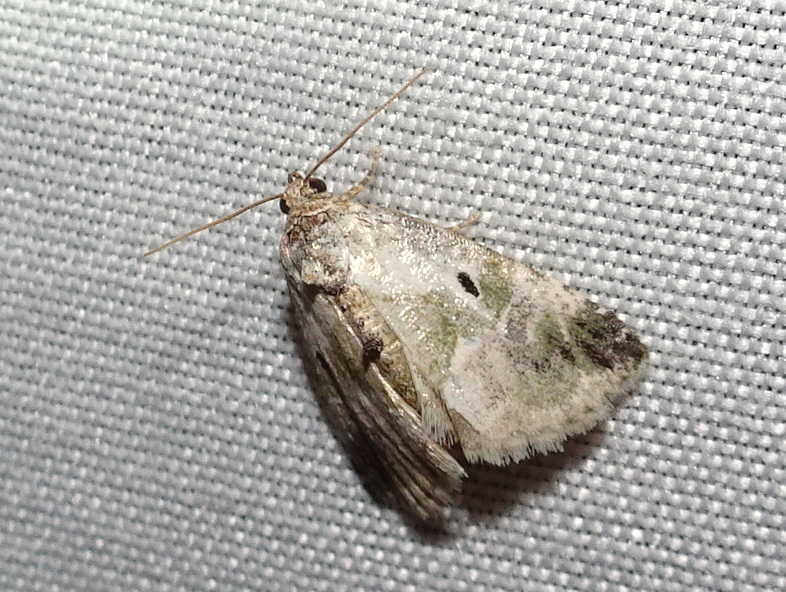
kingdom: Animalia
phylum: Arthropoda
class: Insecta
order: Lepidoptera
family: Noctuidae
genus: Maliattha
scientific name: Maliattha synochitis
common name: Black-dotted glyph
